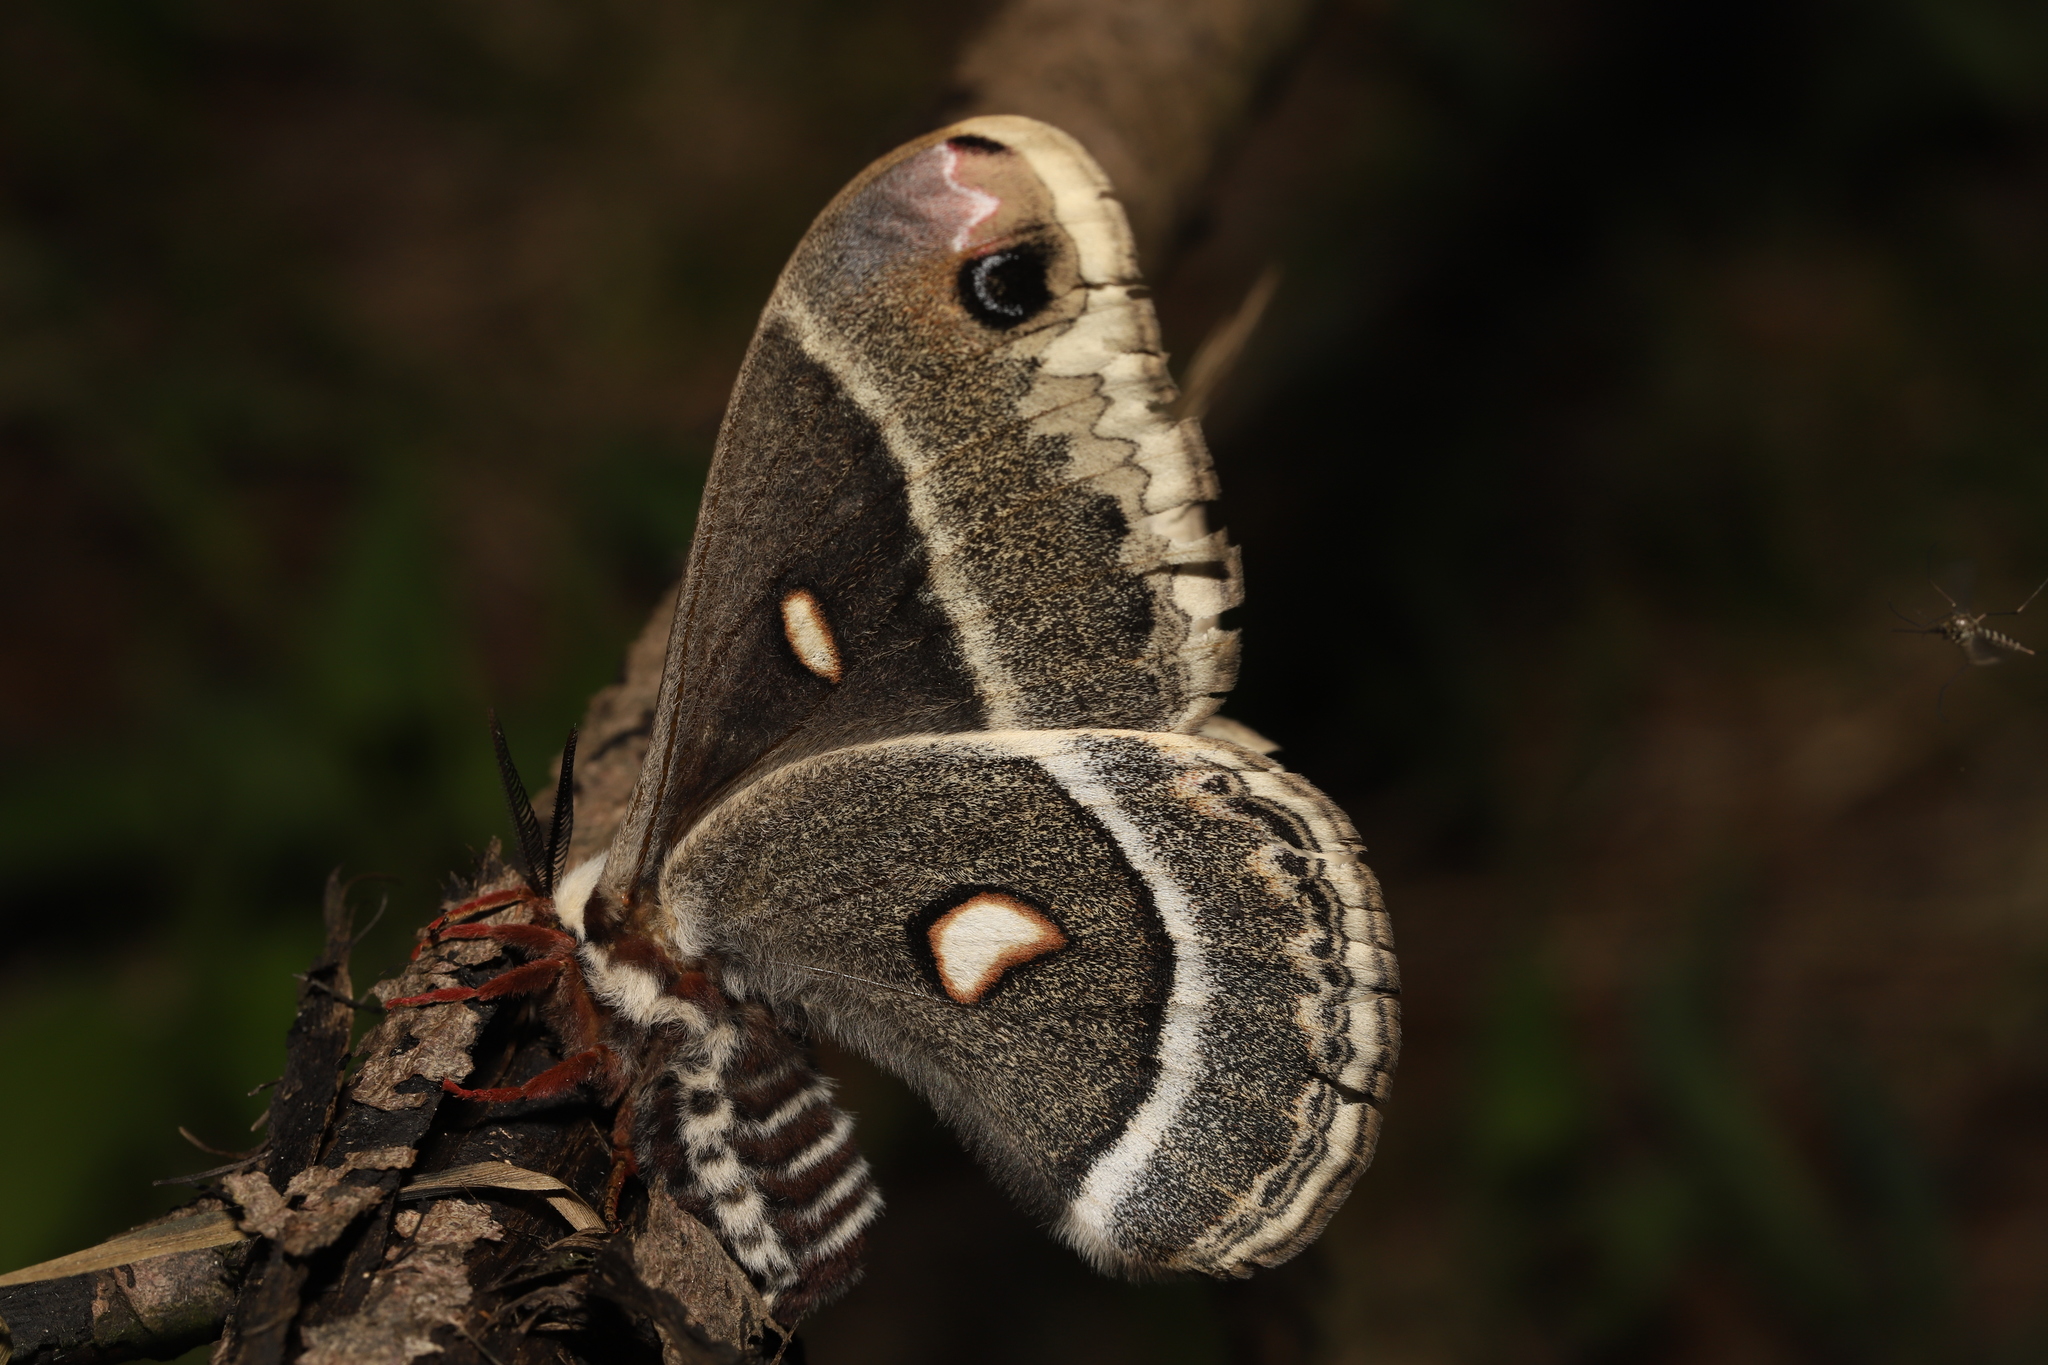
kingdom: Animalia
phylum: Arthropoda
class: Insecta
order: Lepidoptera
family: Saturniidae
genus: Hyalophora
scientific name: Hyalophora columbia
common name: Columbia silkmoth
